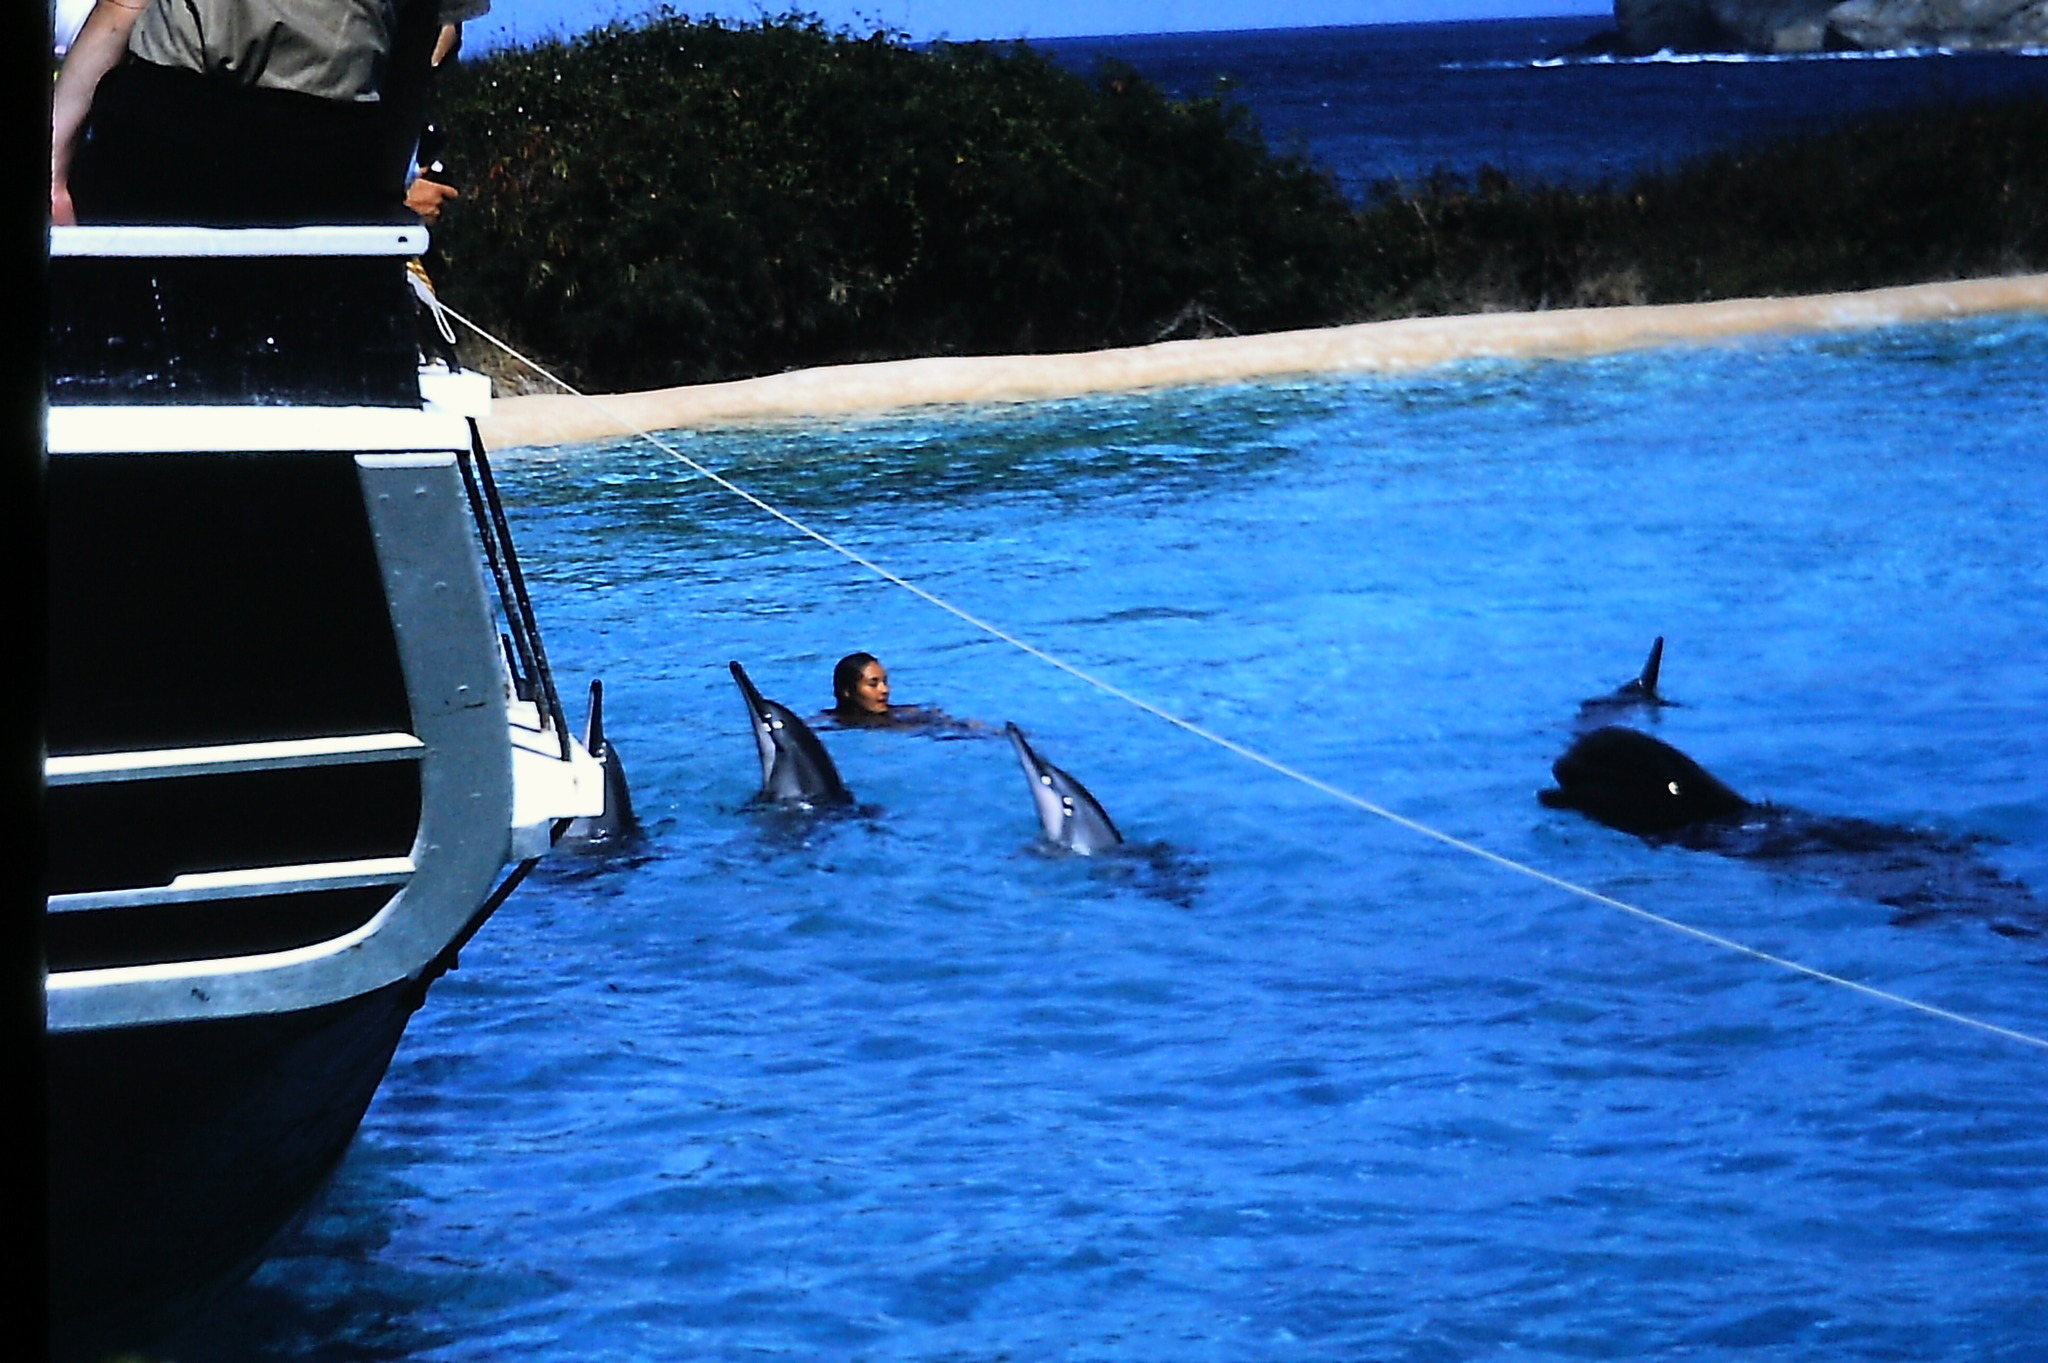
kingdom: Animalia
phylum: Chordata
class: Mammalia
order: Cetacea
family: Delphinidae
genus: Stenella
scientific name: Stenella longirostris
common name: Spinner dolphin
